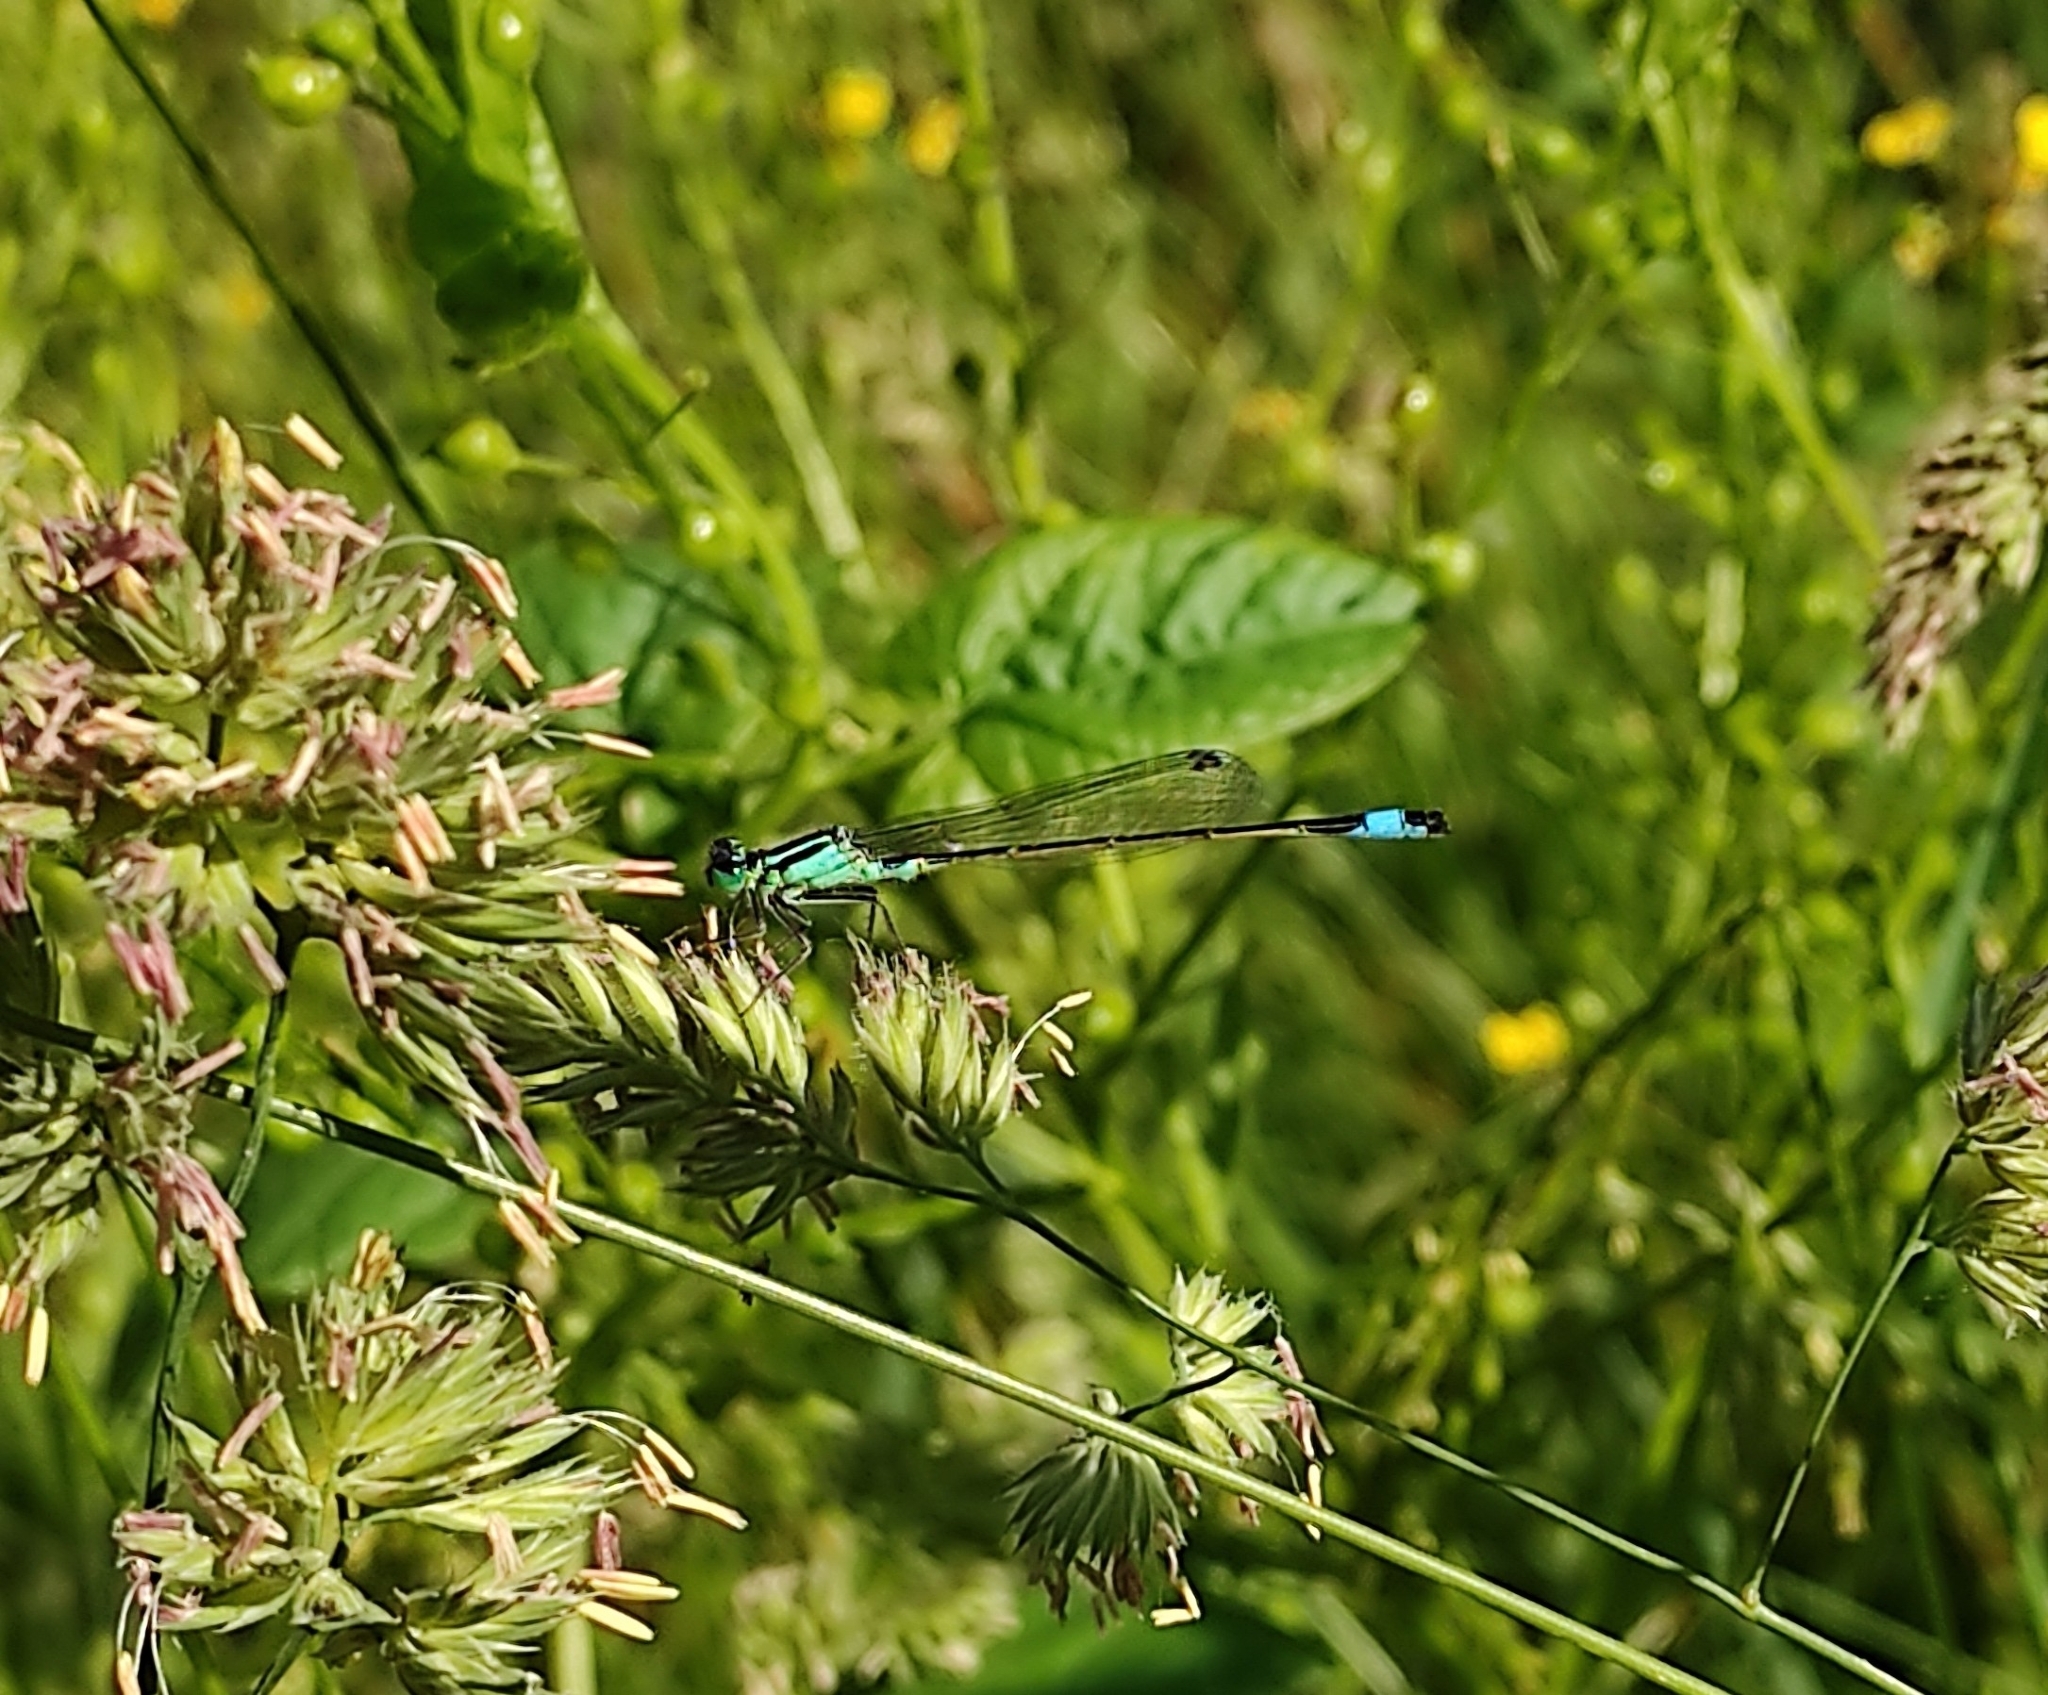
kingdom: Animalia
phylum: Arthropoda
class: Insecta
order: Odonata
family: Coenagrionidae
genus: Ischnura
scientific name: Ischnura elegans
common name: Blue-tailed damselfly
